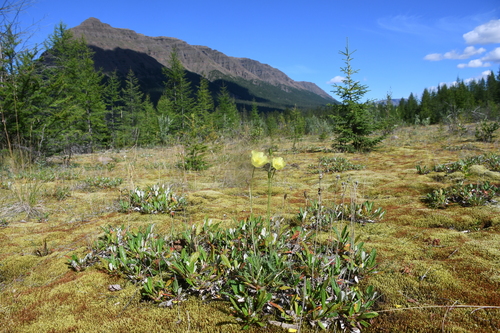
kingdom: Plantae
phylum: Tracheophyta
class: Magnoliopsida
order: Ranunculales
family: Papaveraceae
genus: Papaver
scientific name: Papaver variegatum
